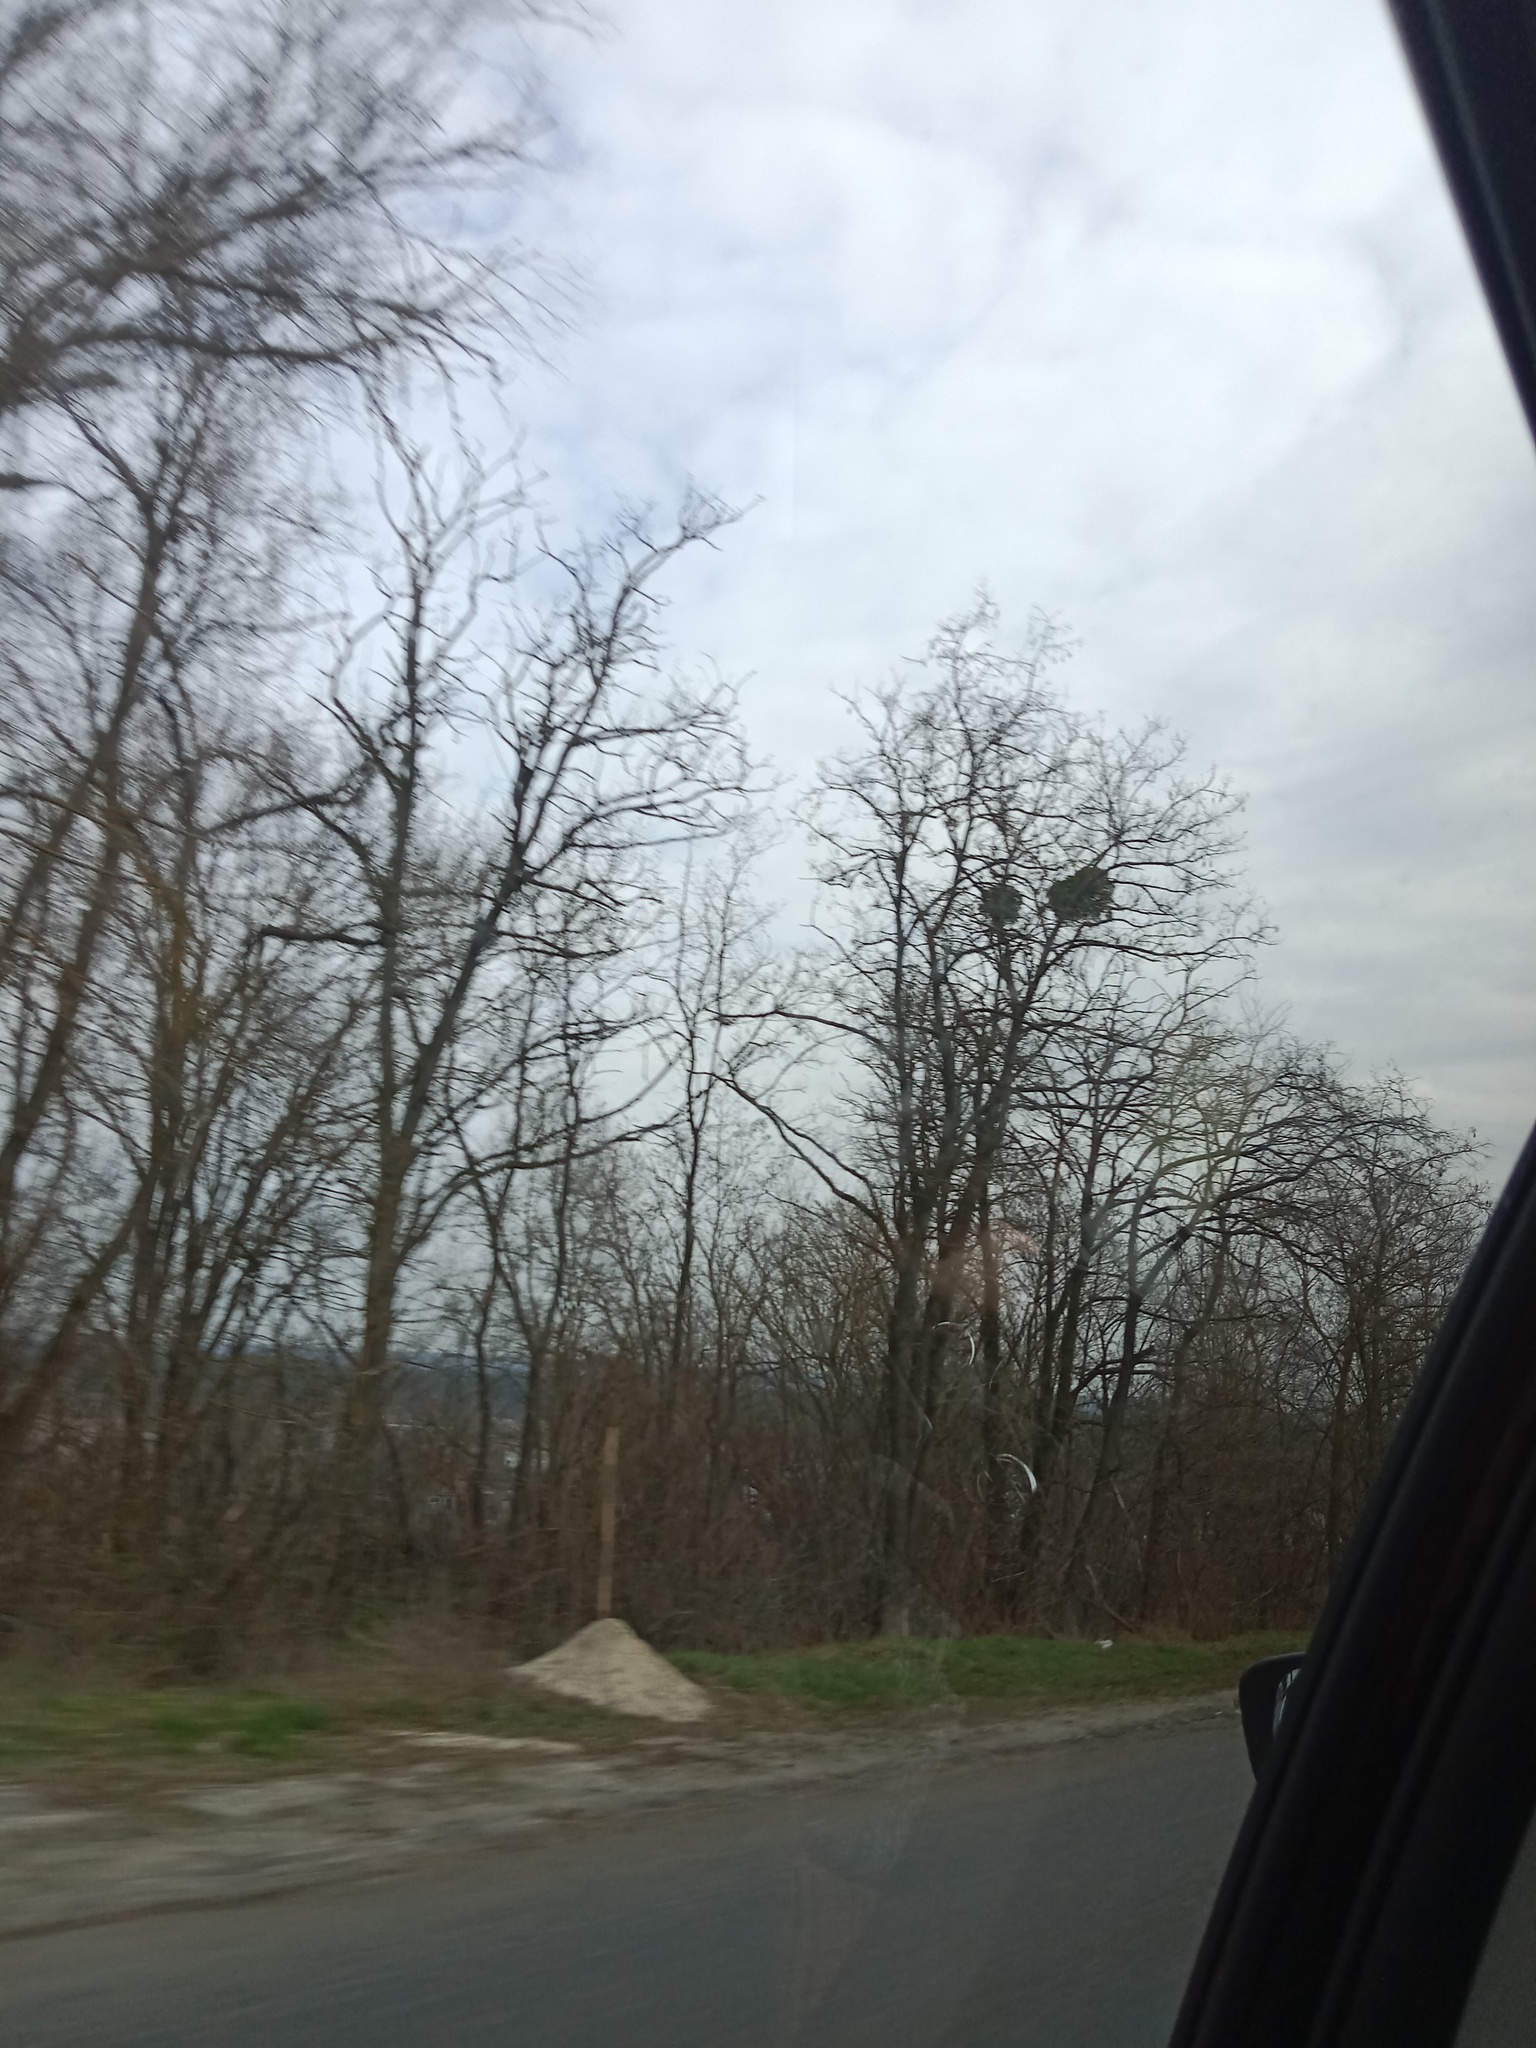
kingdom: Plantae
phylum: Tracheophyta
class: Magnoliopsida
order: Santalales
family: Viscaceae
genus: Viscum
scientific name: Viscum album
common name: Mistletoe
